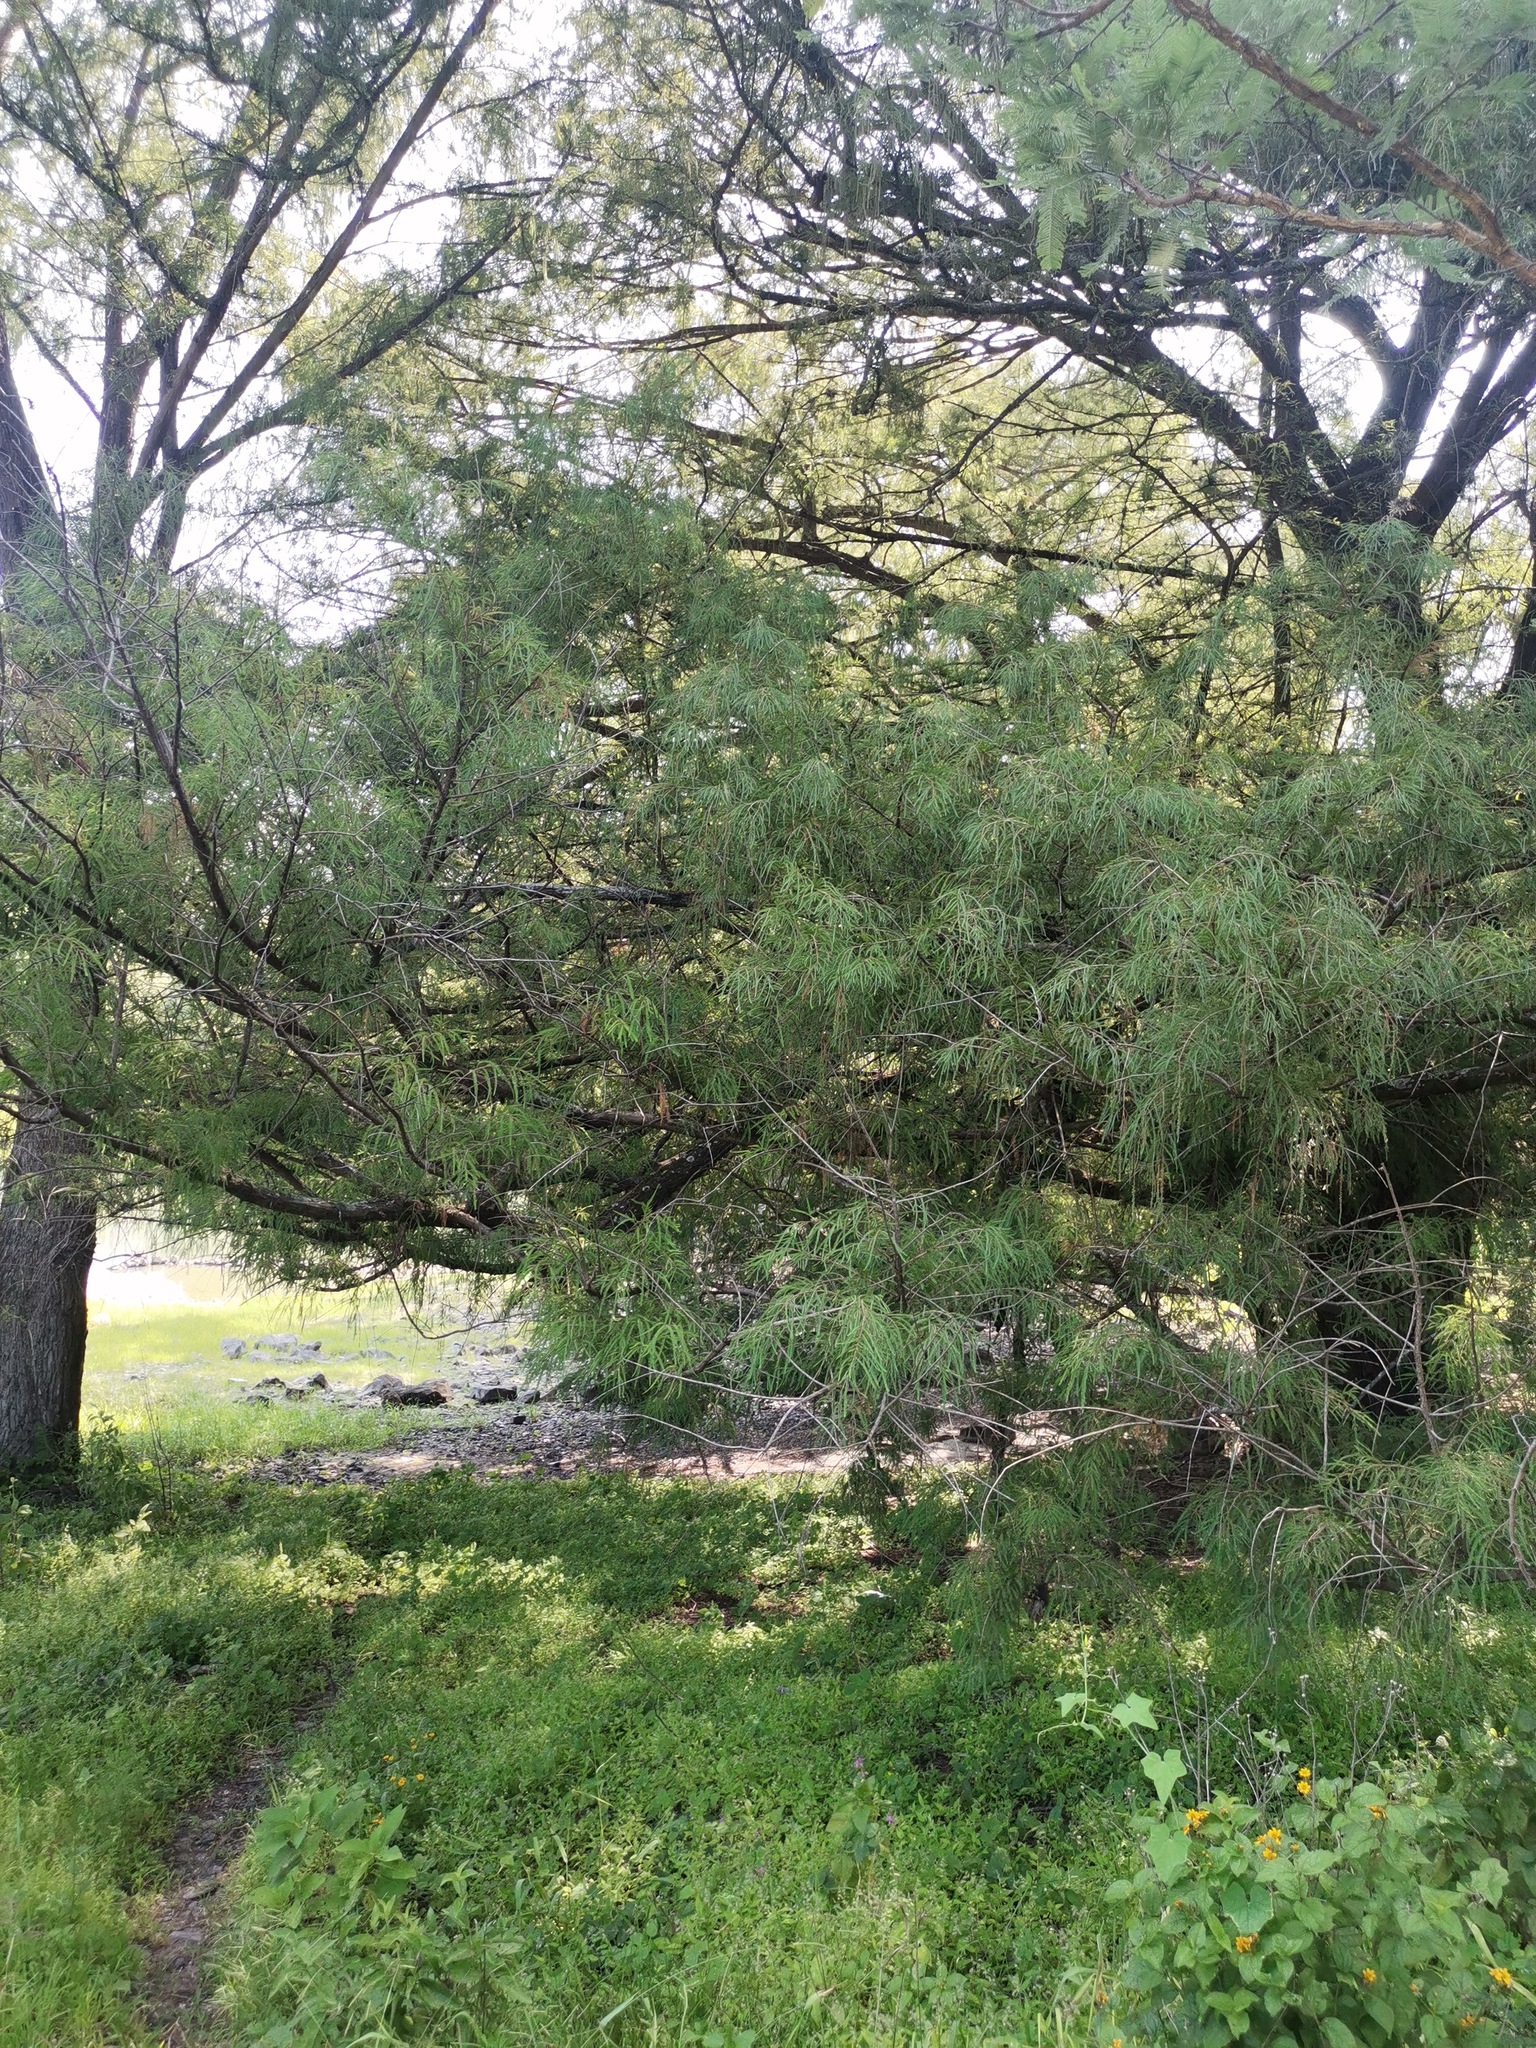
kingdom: Plantae
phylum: Tracheophyta
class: Pinopsida
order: Pinales
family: Cupressaceae
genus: Taxodium
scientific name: Taxodium mucronatum
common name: Montezume bald cypress
